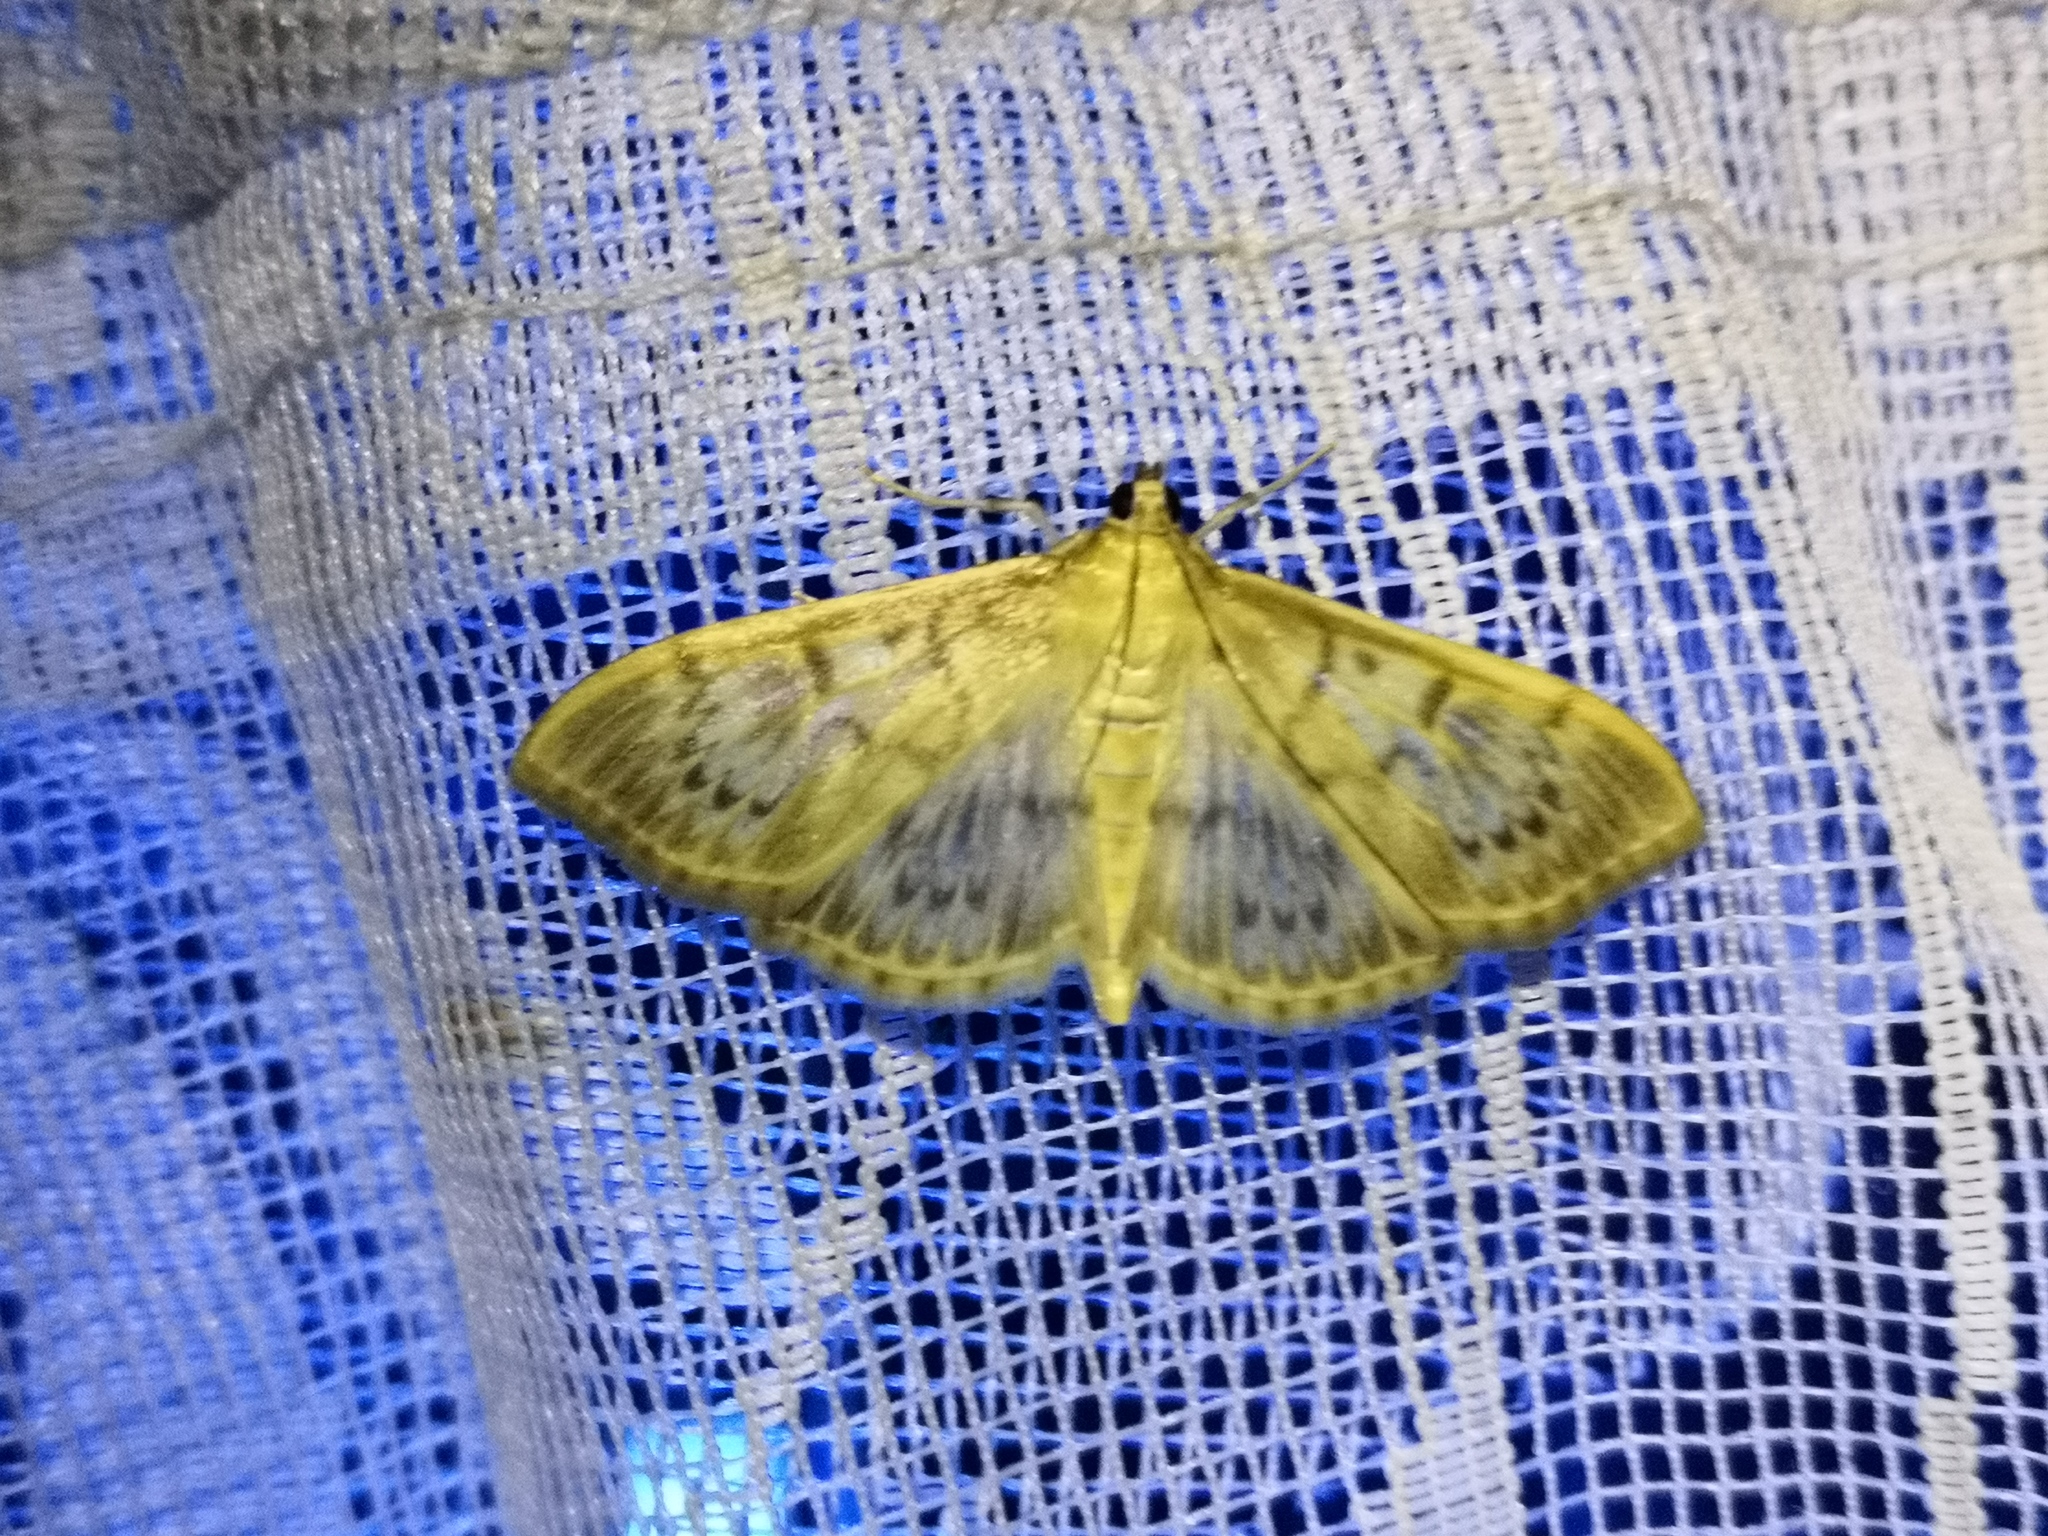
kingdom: Animalia
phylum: Arthropoda
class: Insecta
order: Lepidoptera
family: Crambidae
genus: Patania
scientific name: Patania ruralis
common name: Mother of pearl
